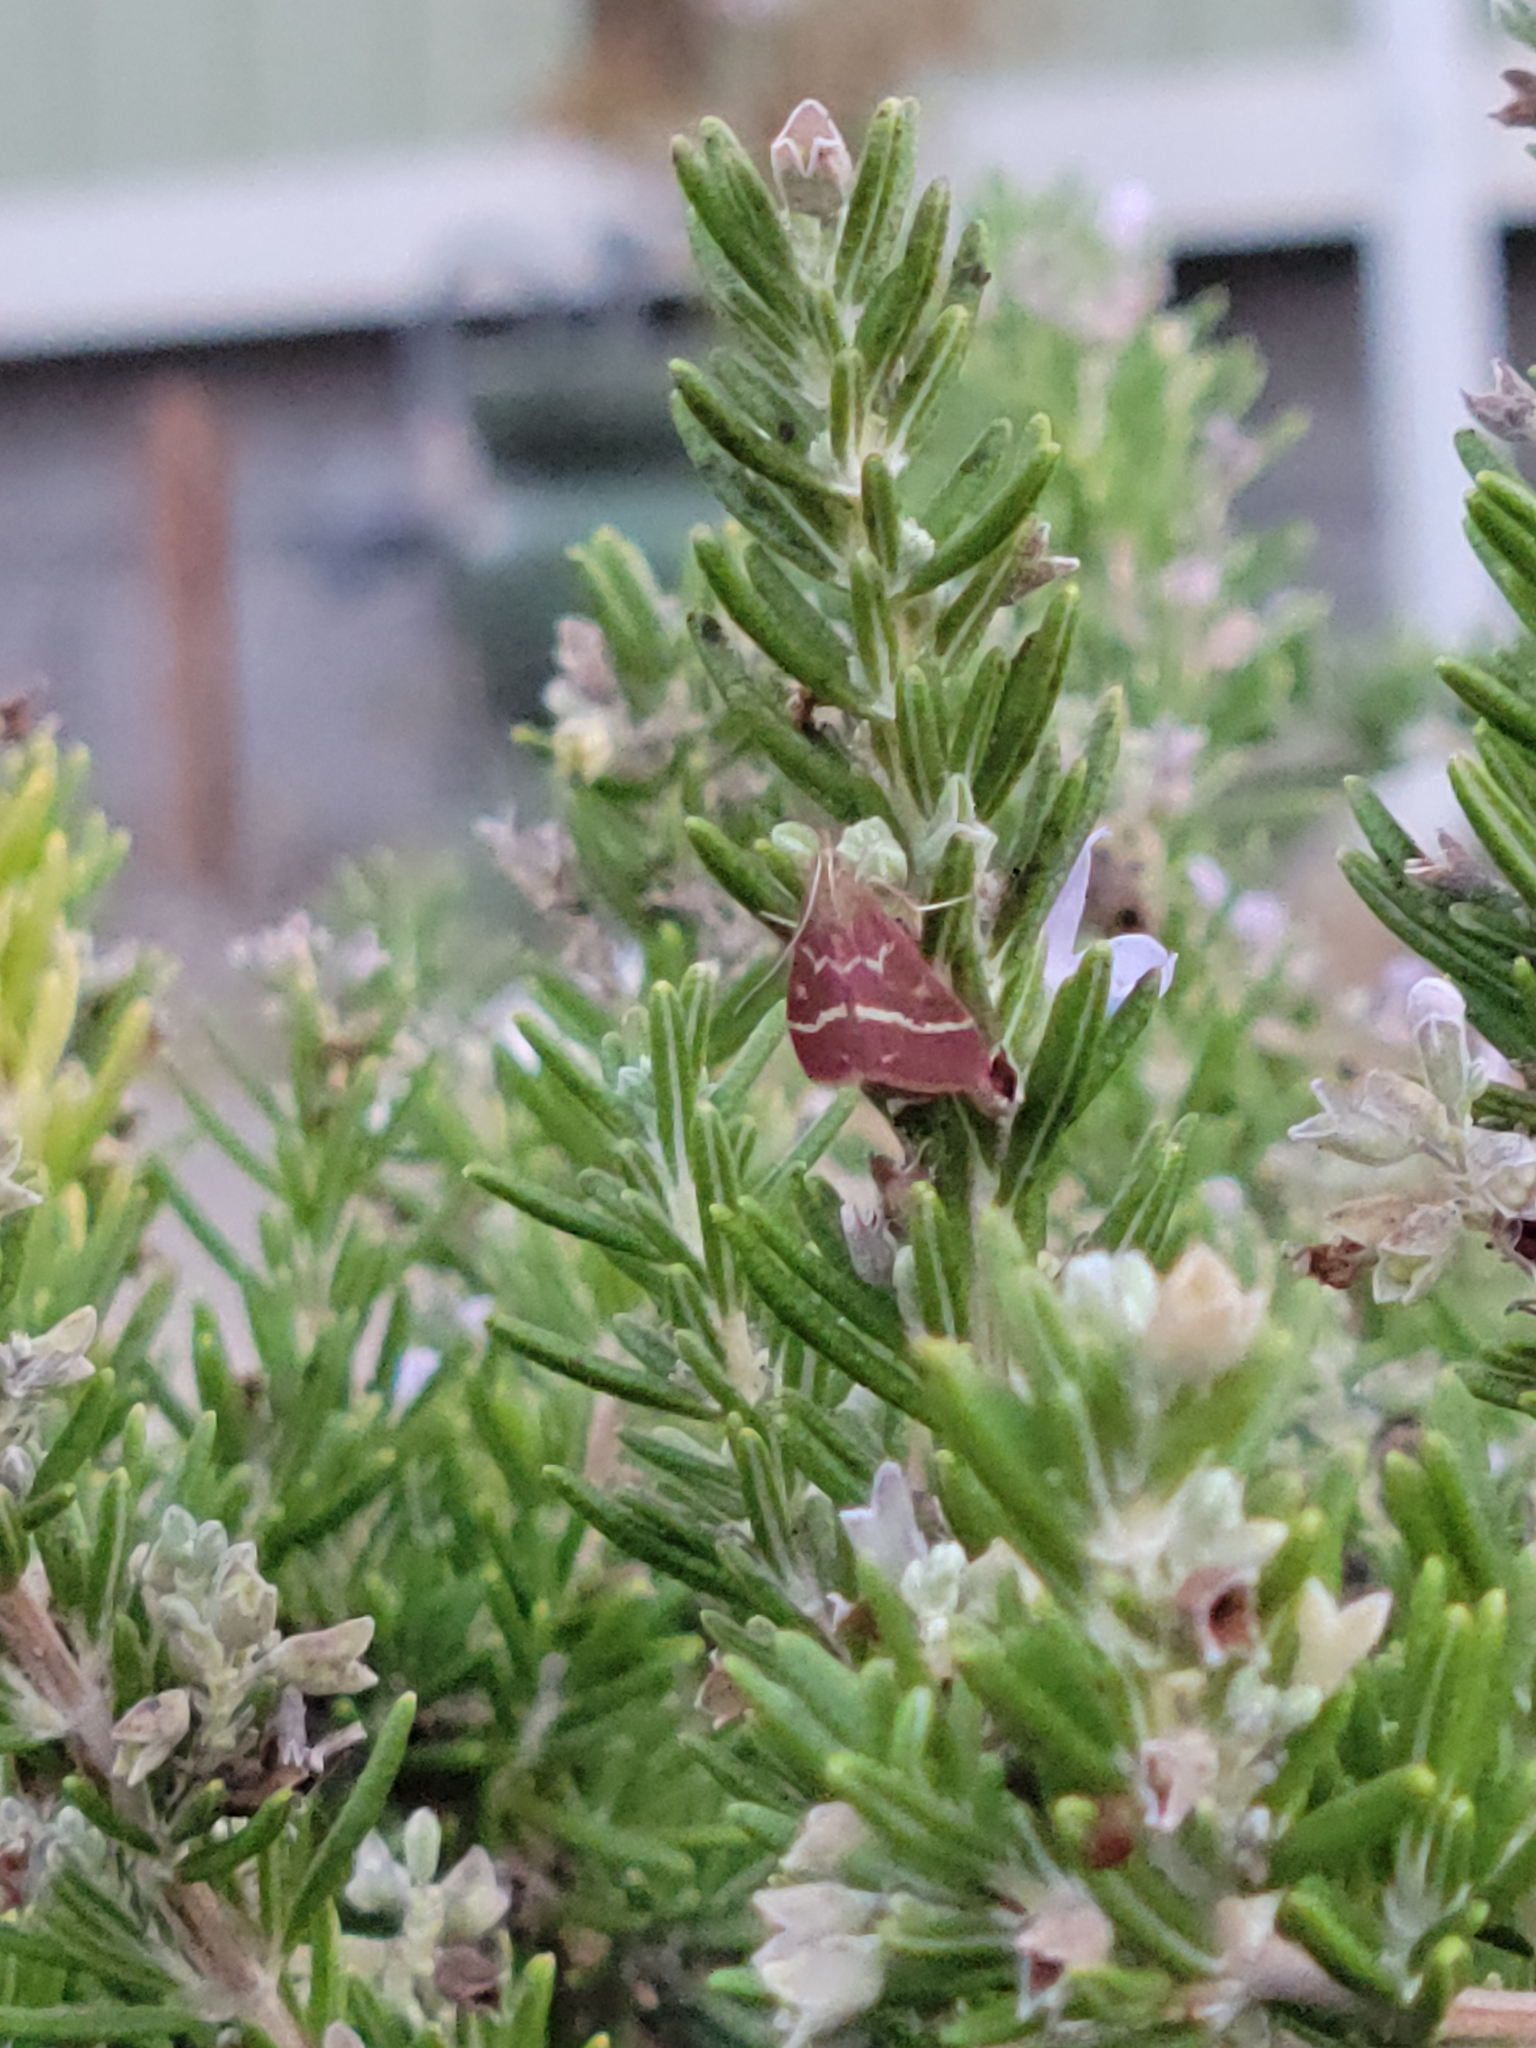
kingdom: Animalia
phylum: Arthropoda
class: Insecta
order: Lepidoptera
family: Crambidae
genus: Pyrausta
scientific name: Pyrausta volupialis
